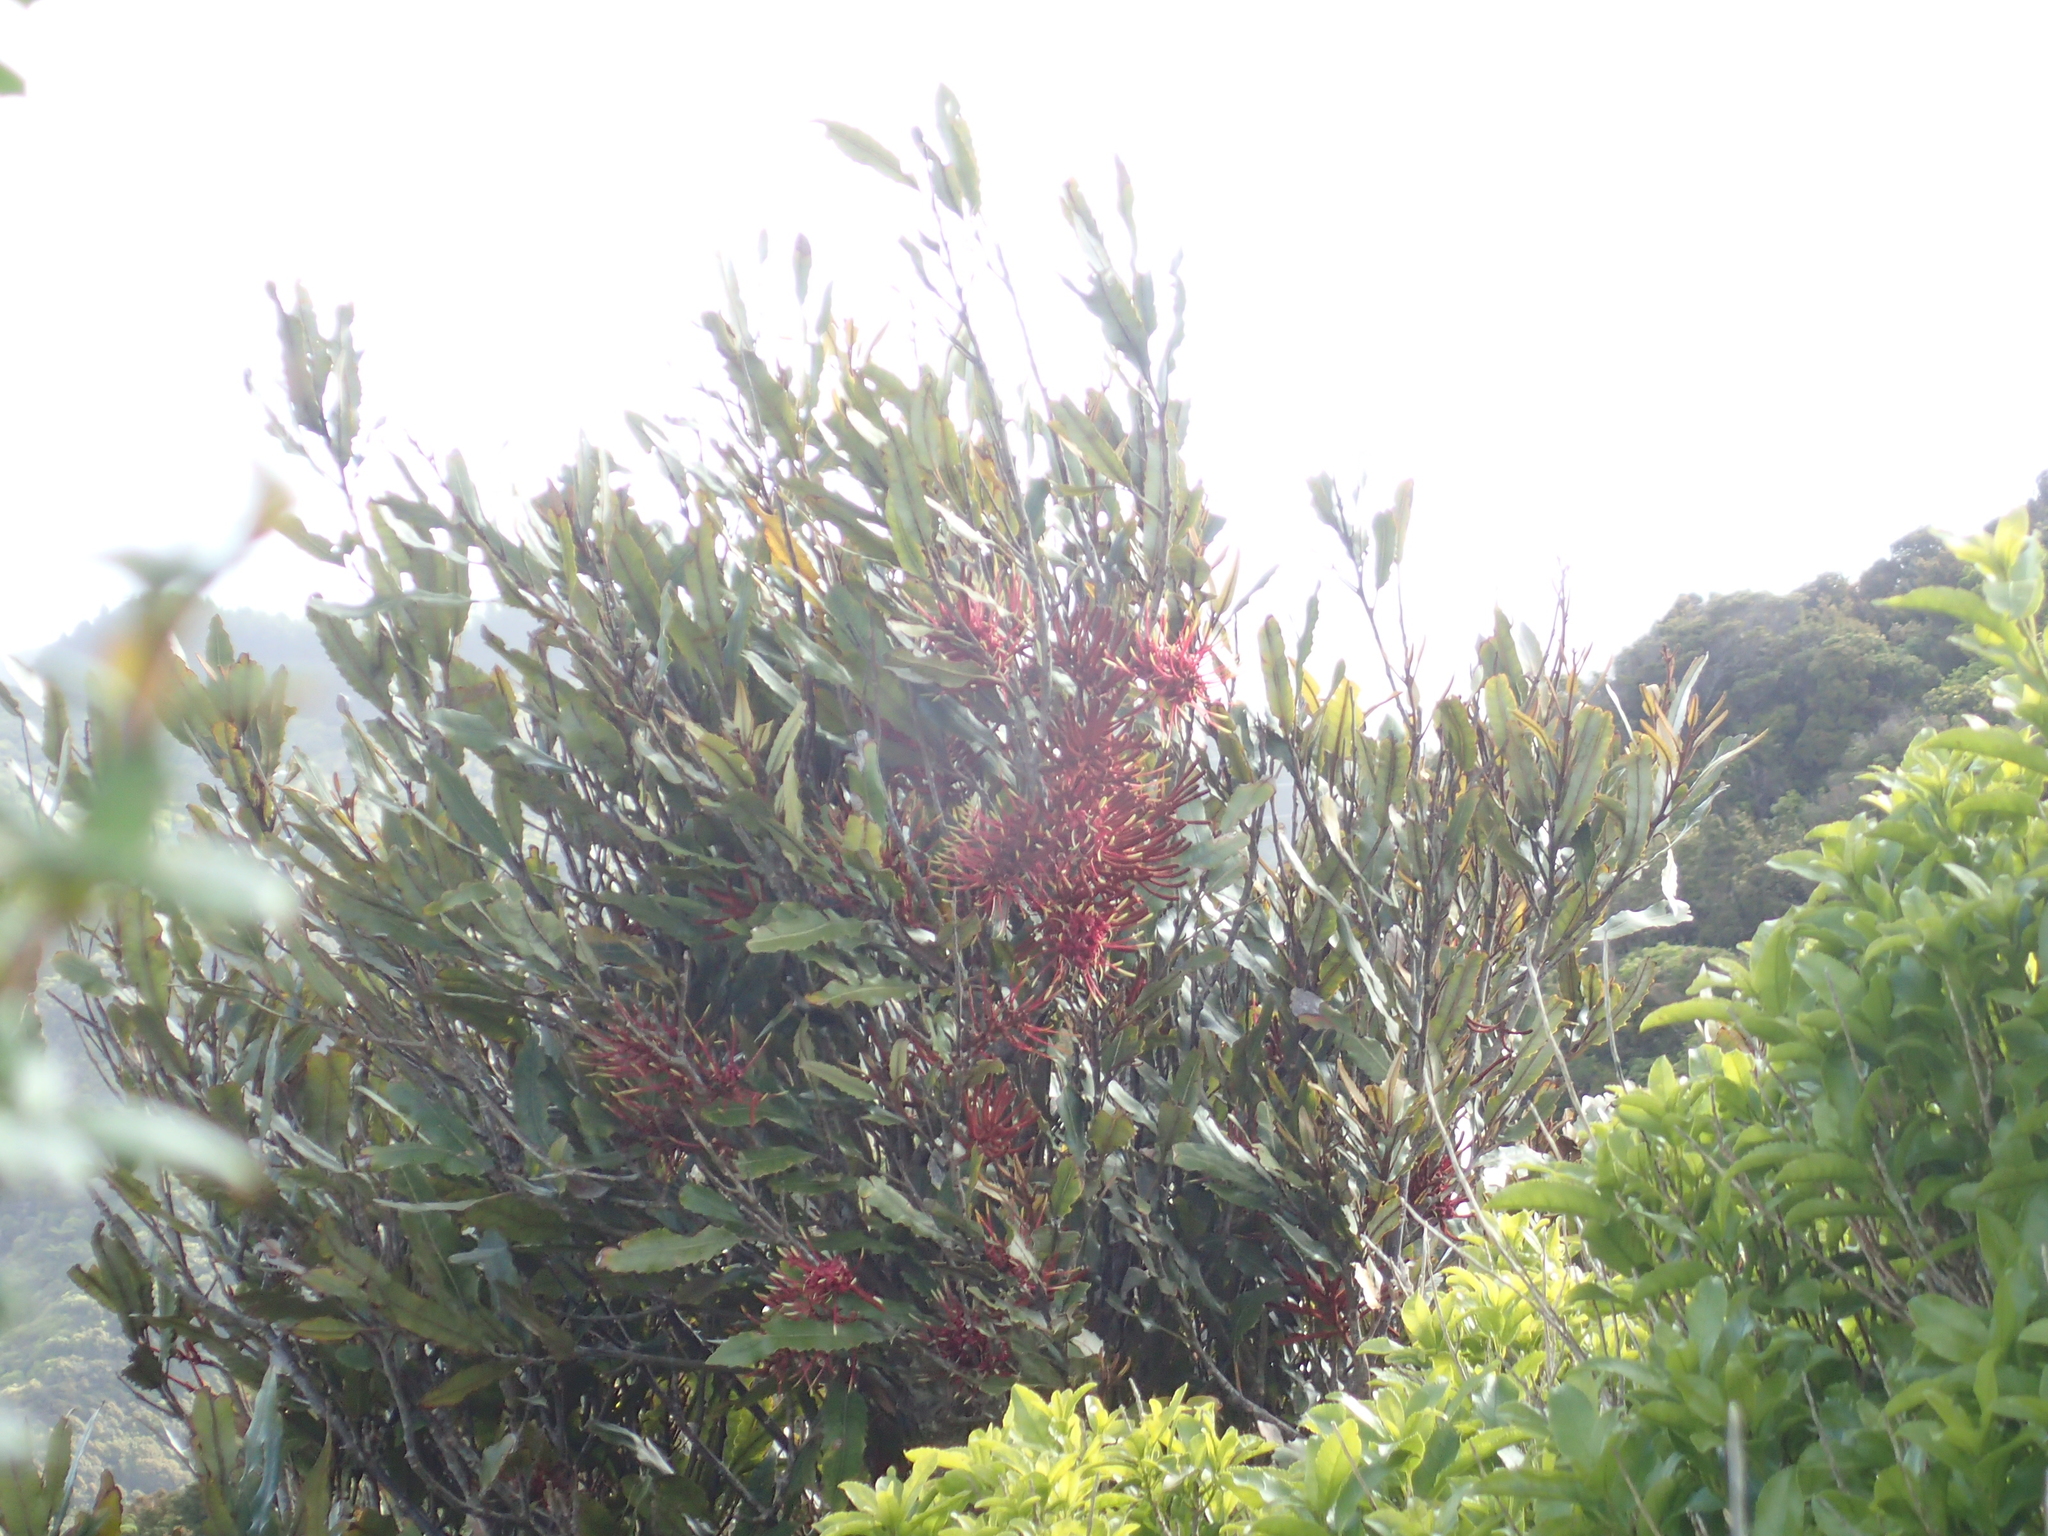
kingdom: Plantae
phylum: Tracheophyta
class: Magnoliopsida
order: Proteales
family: Proteaceae
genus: Knightia
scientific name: Knightia excelsa
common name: New zealand-honeysuckle
